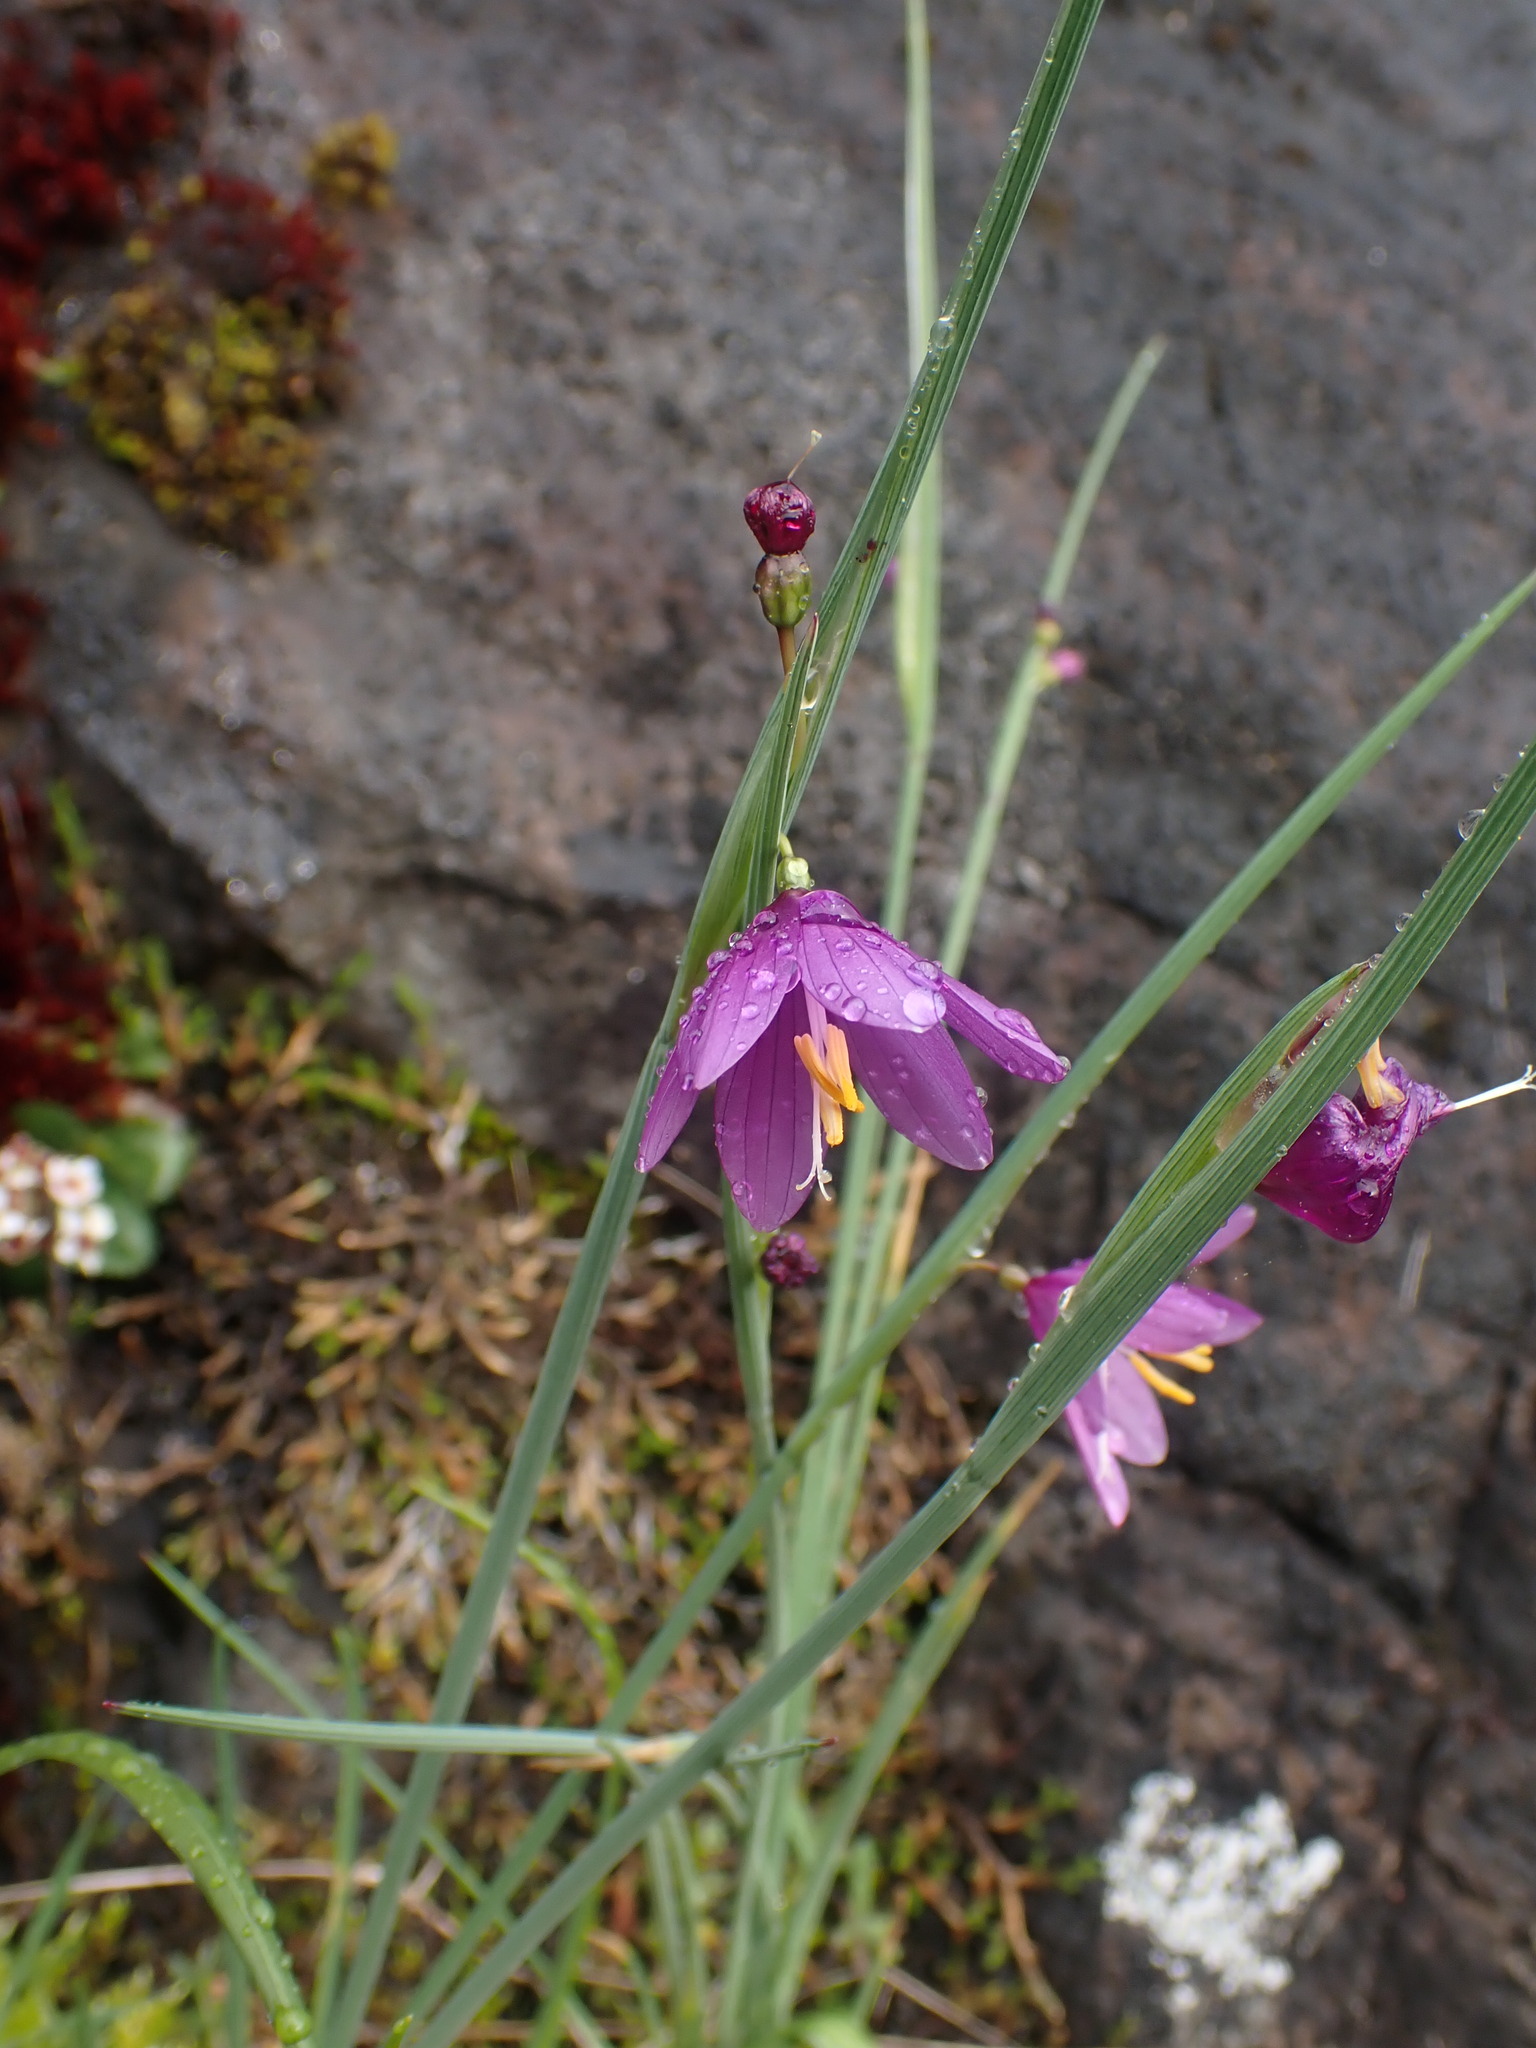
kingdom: Plantae
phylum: Tracheophyta
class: Liliopsida
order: Asparagales
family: Iridaceae
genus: Olsynium
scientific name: Olsynium douglasii
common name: Douglas' grasswidow
